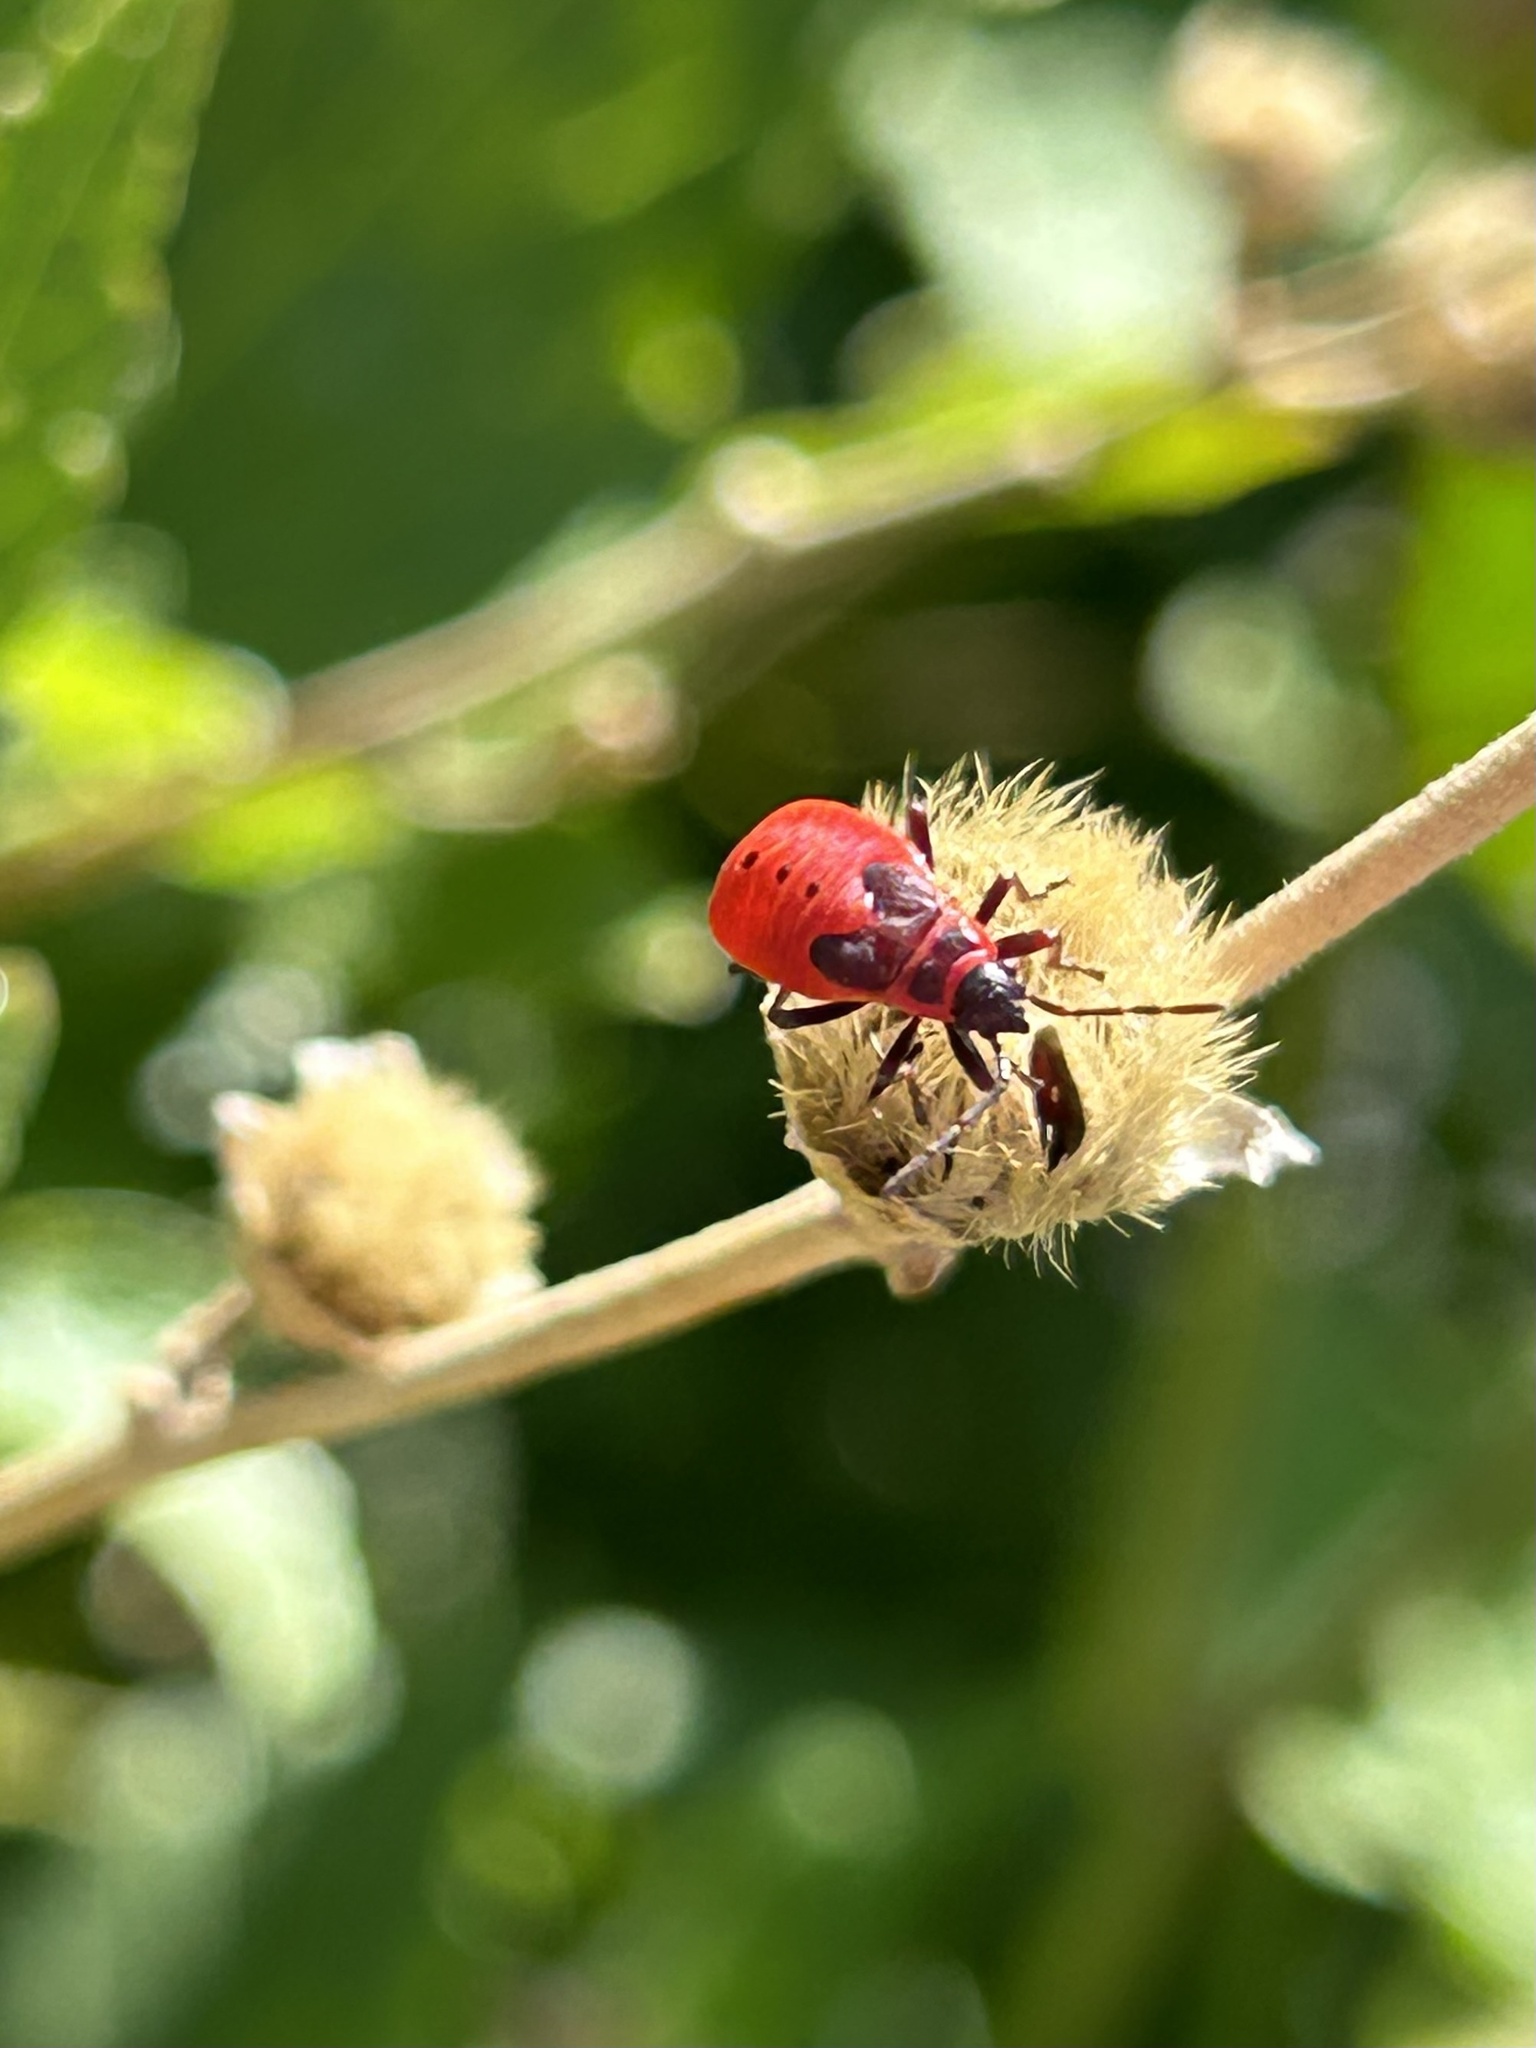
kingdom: Animalia
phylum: Arthropoda
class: Insecta
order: Hemiptera
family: Pyrrhocoridae
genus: Pyrrhocoris
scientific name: Pyrrhocoris apterus
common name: Firebug
